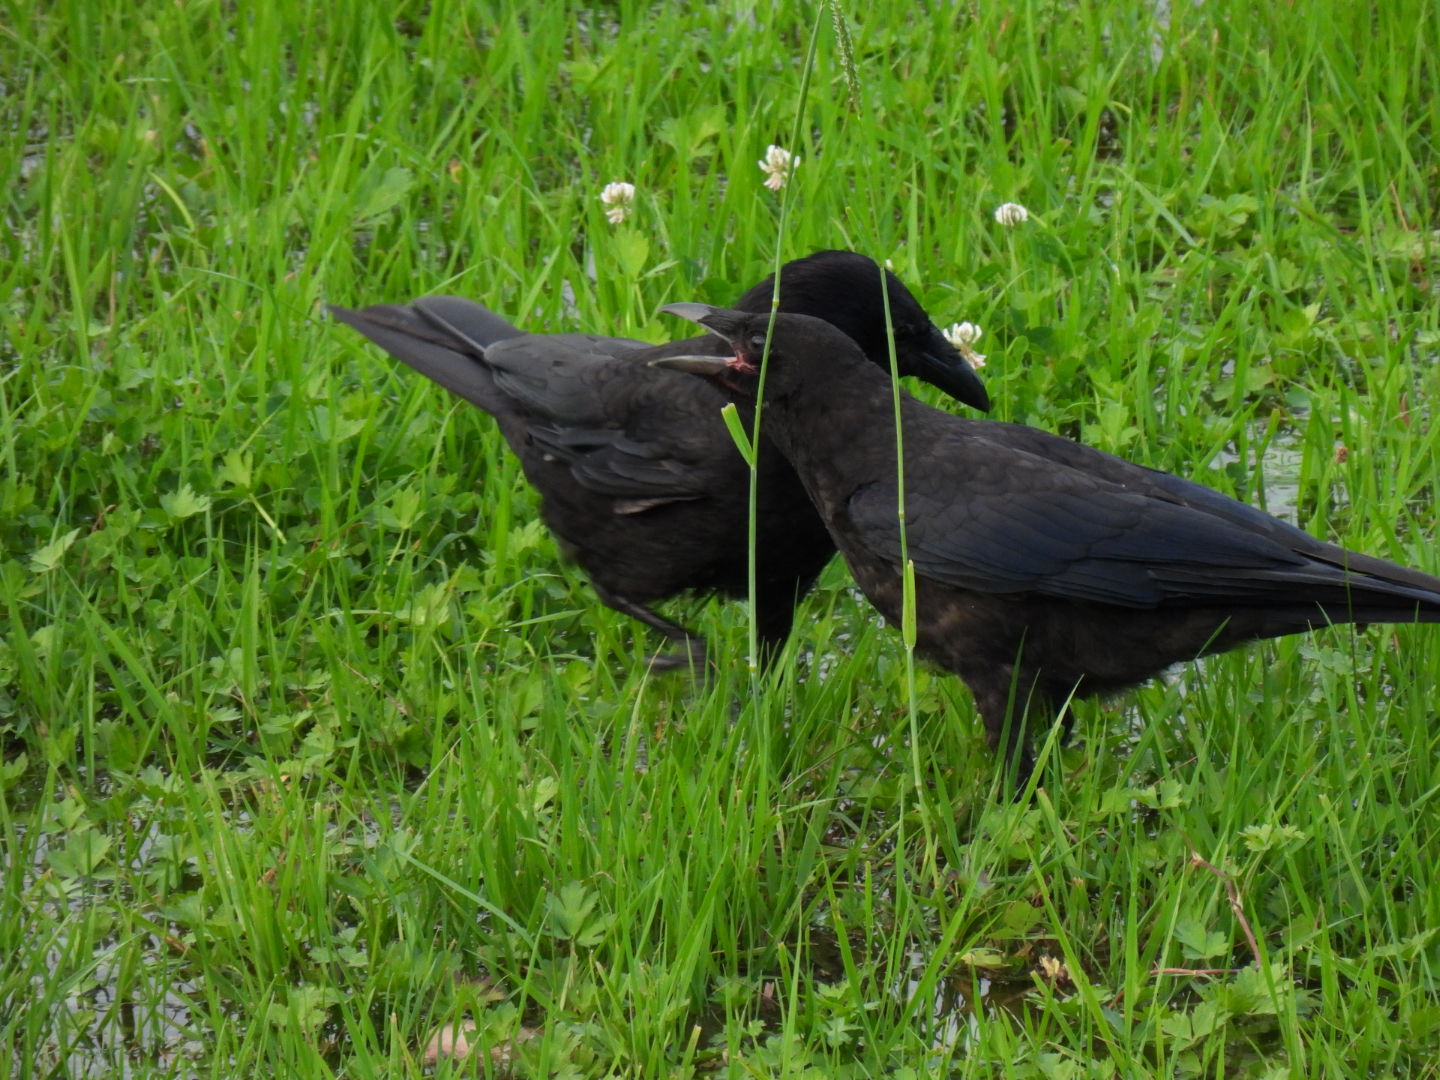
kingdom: Animalia
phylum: Chordata
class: Aves
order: Passeriformes
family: Corvidae
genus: Corvus
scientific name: Corvus corone
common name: Carrion crow
